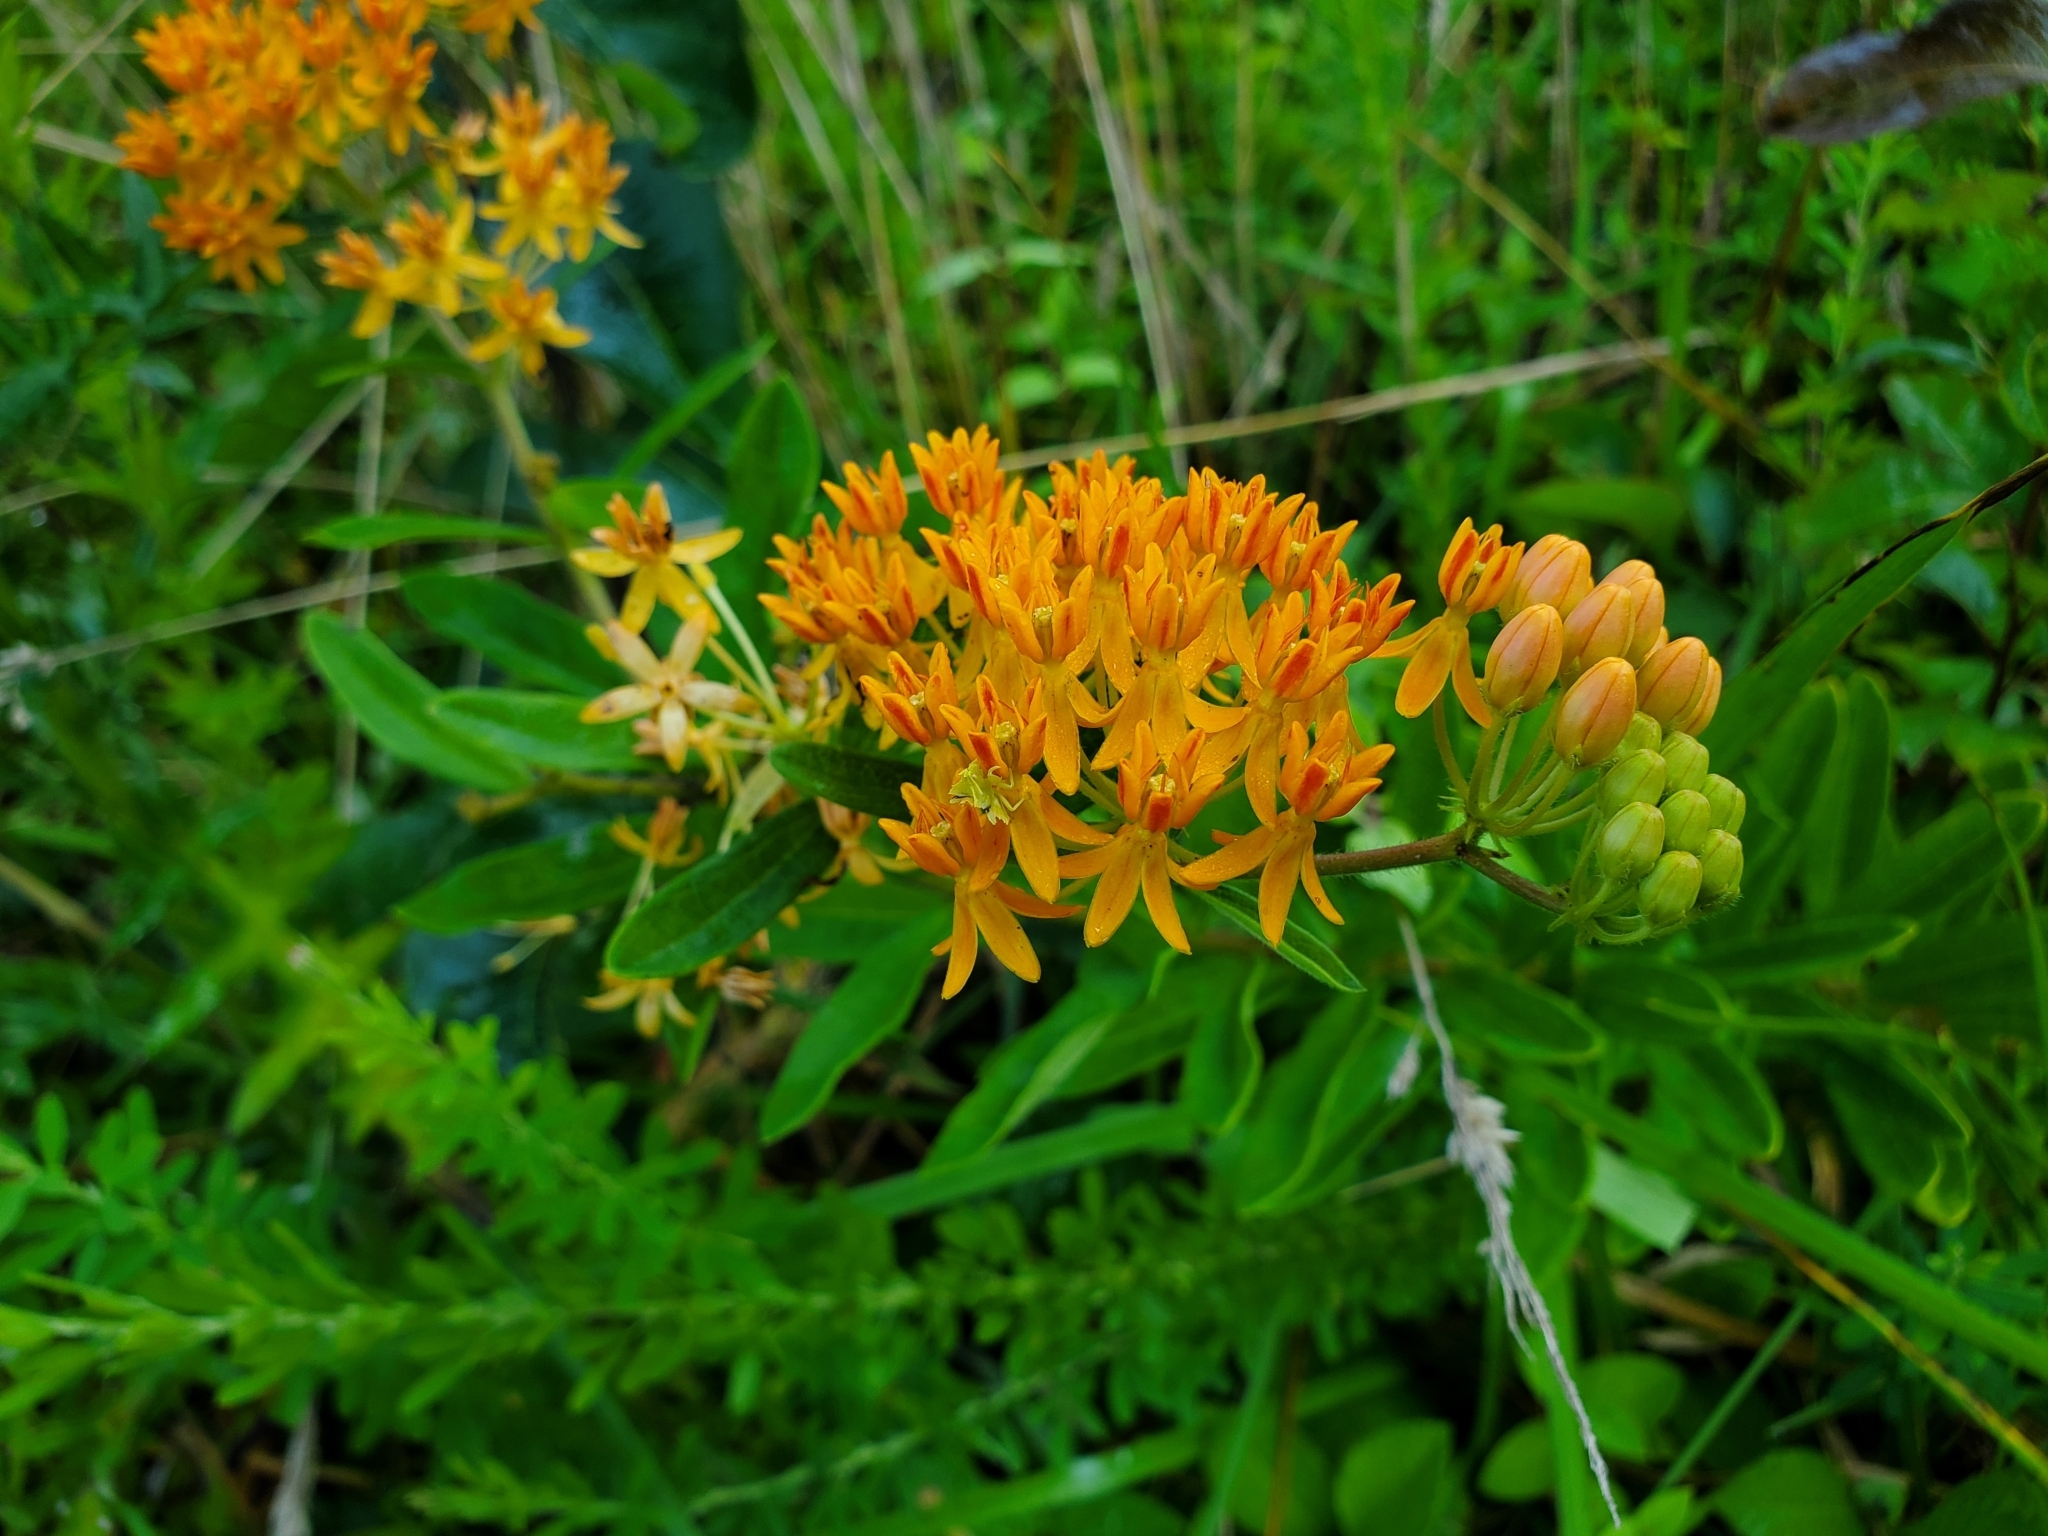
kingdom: Plantae
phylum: Tracheophyta
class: Magnoliopsida
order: Gentianales
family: Apocynaceae
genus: Asclepias
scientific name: Asclepias tuberosa
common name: Butterfly milkweed
